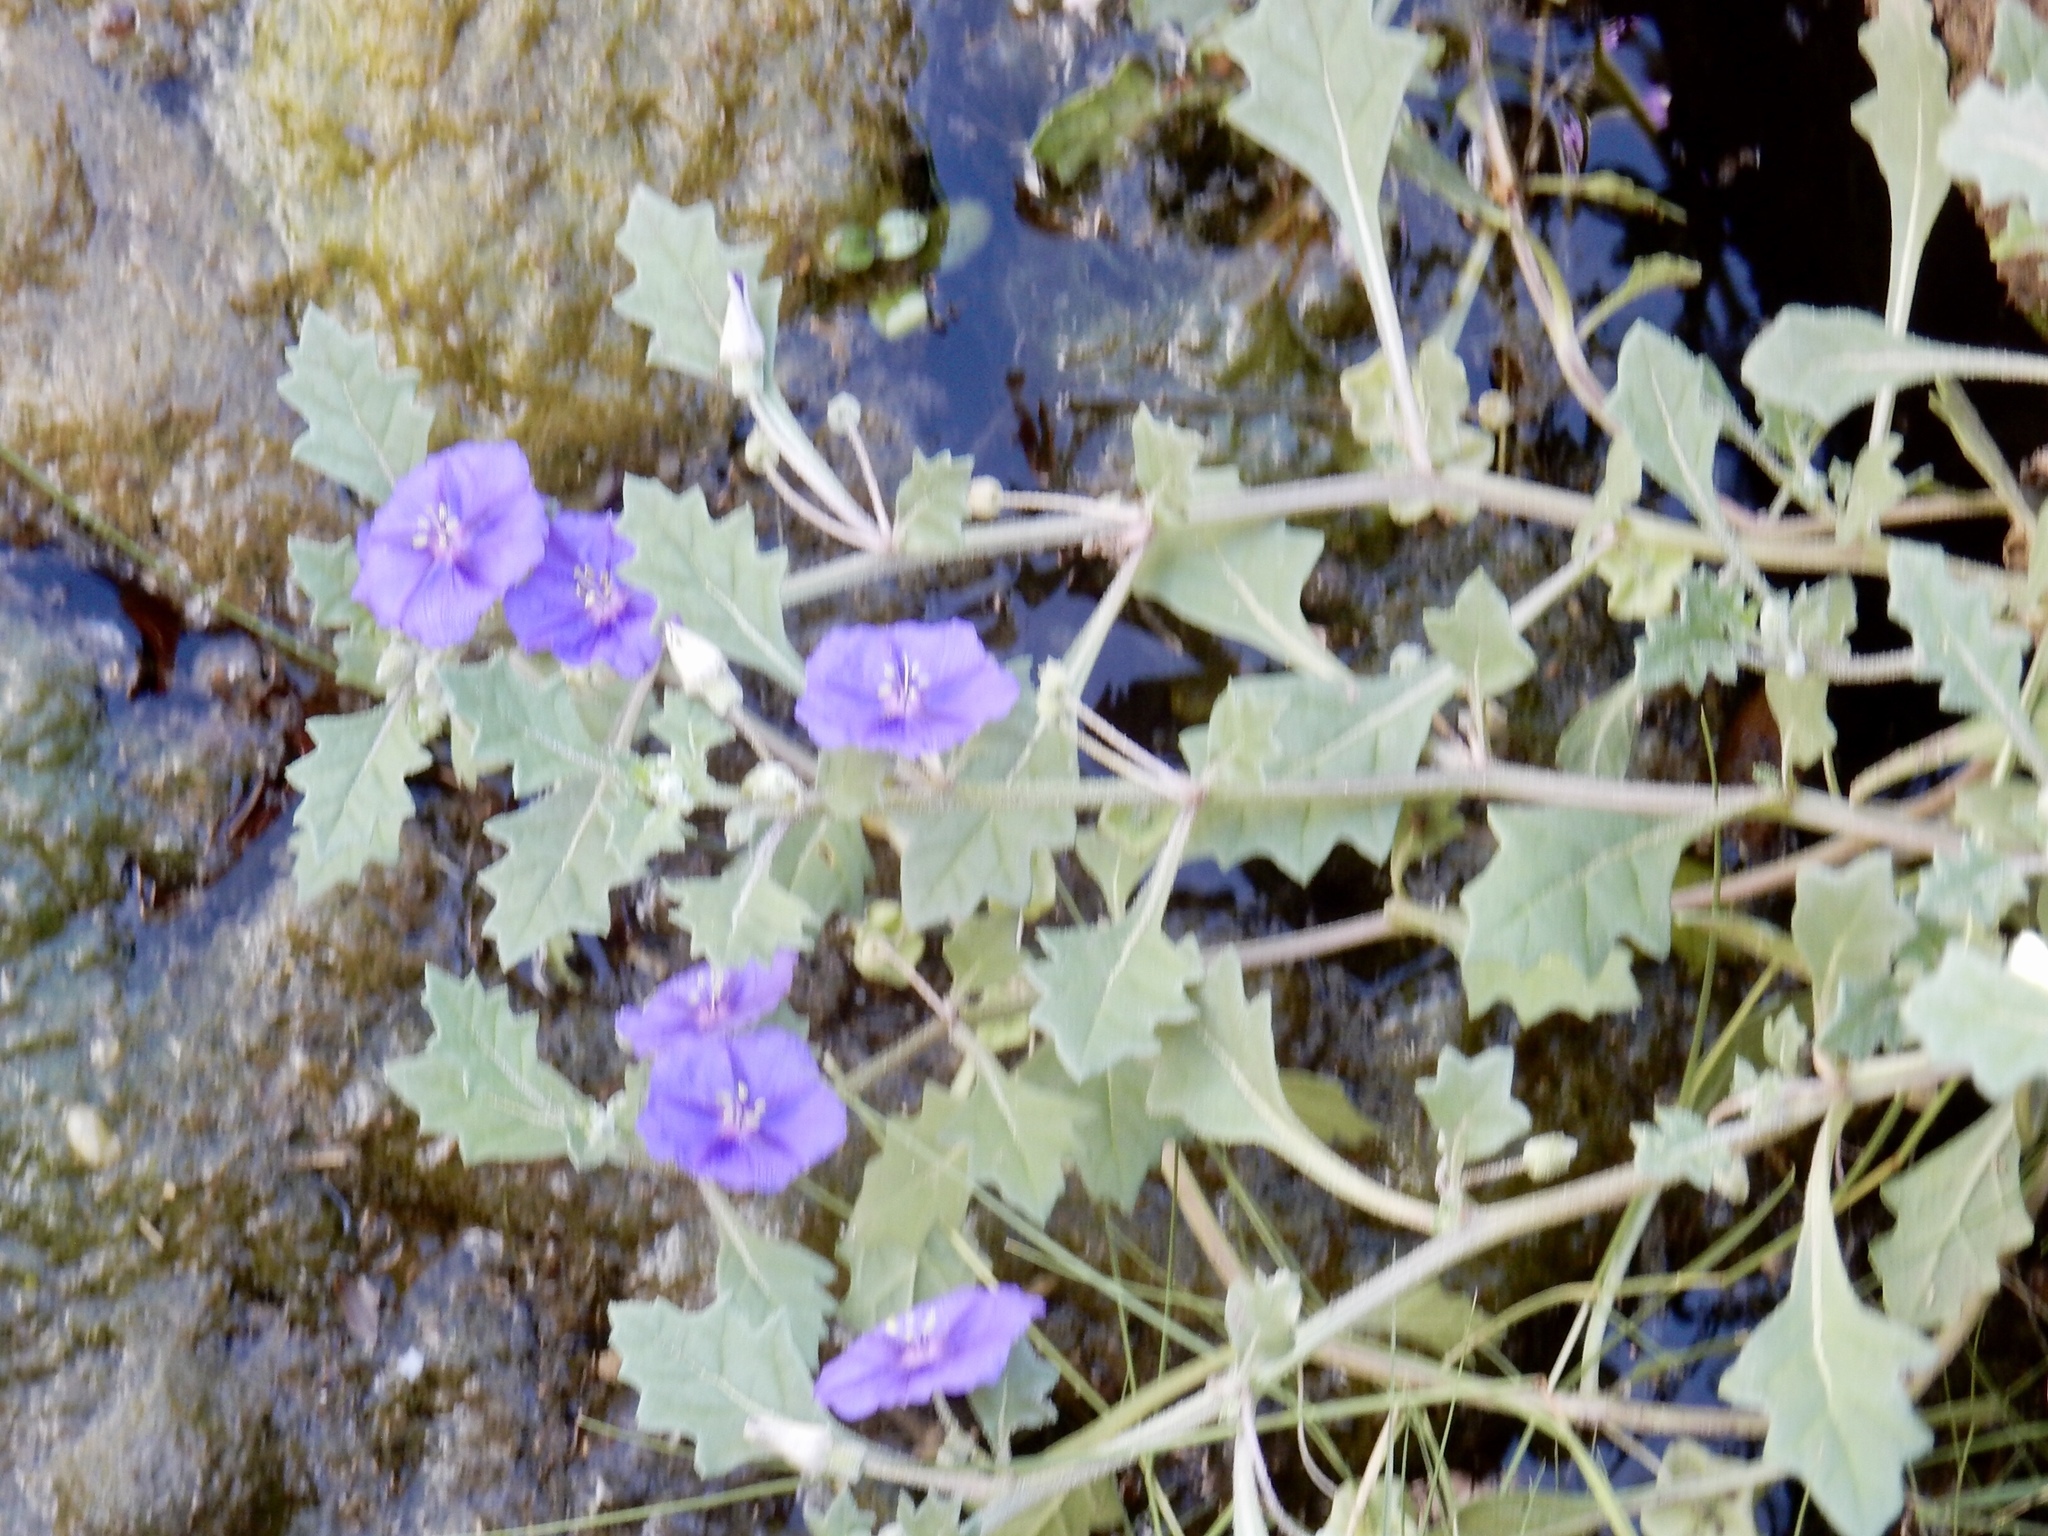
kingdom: Plantae
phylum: Tracheophyta
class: Magnoliopsida
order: Solanales
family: Solanaceae
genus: Quincula
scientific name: Quincula lobata
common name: Purple-ground-cherry
